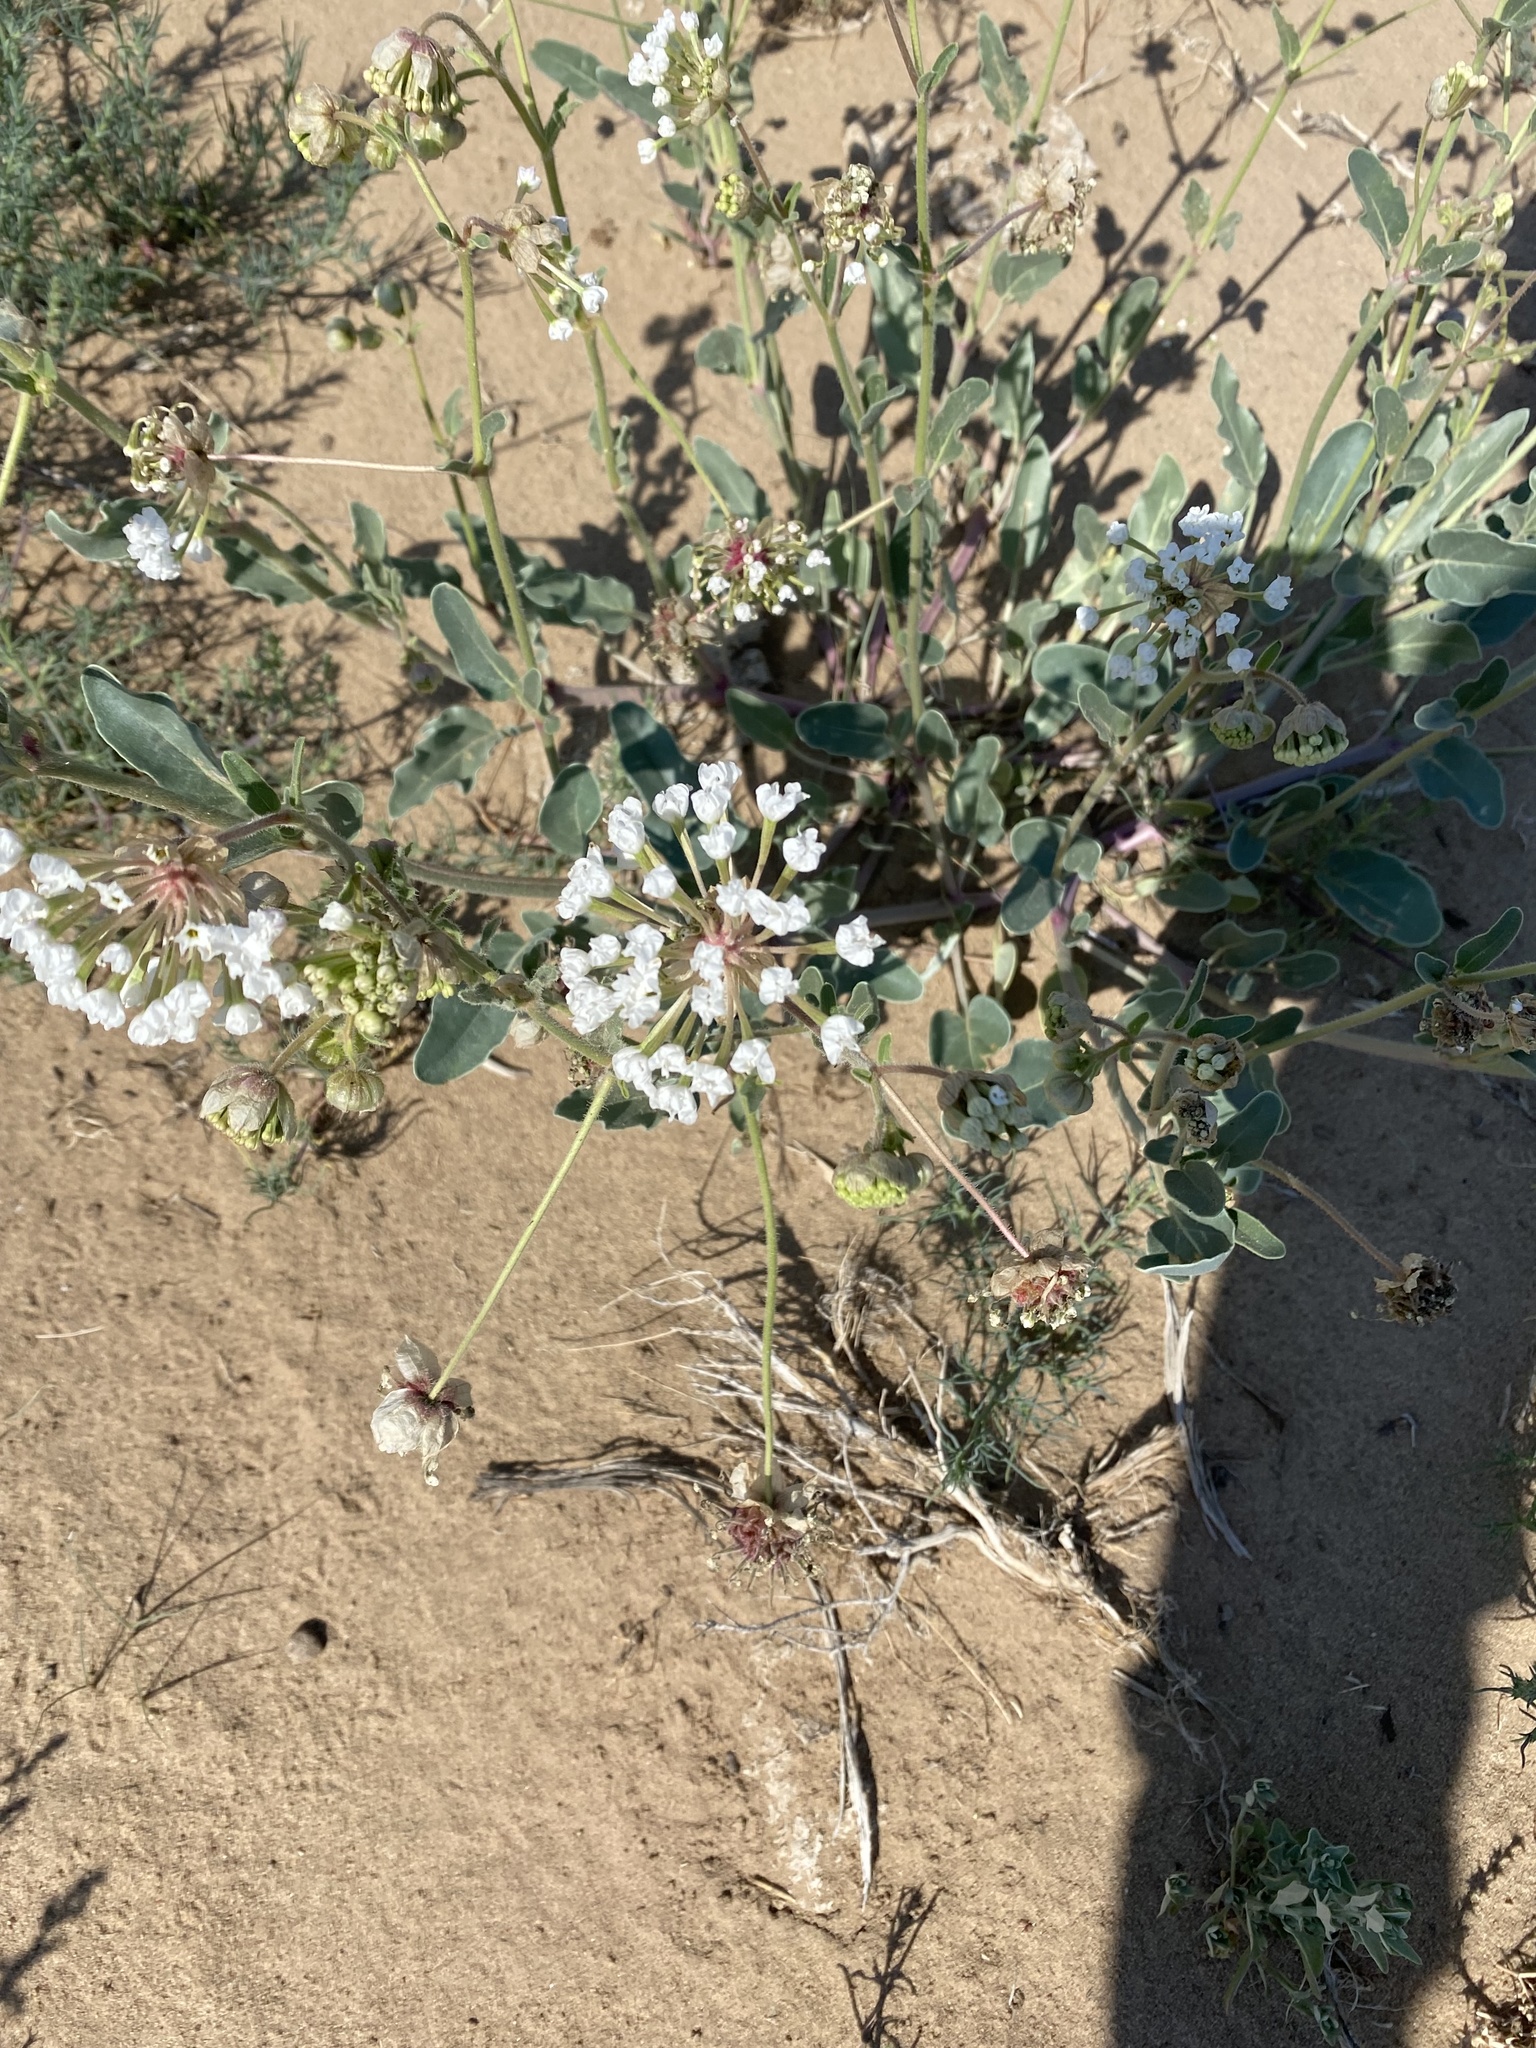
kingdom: Plantae
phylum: Tracheophyta
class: Magnoliopsida
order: Caryophyllales
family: Nyctaginaceae
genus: Abronia
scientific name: Abronia fragrans
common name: Fragrant sand-verbena
